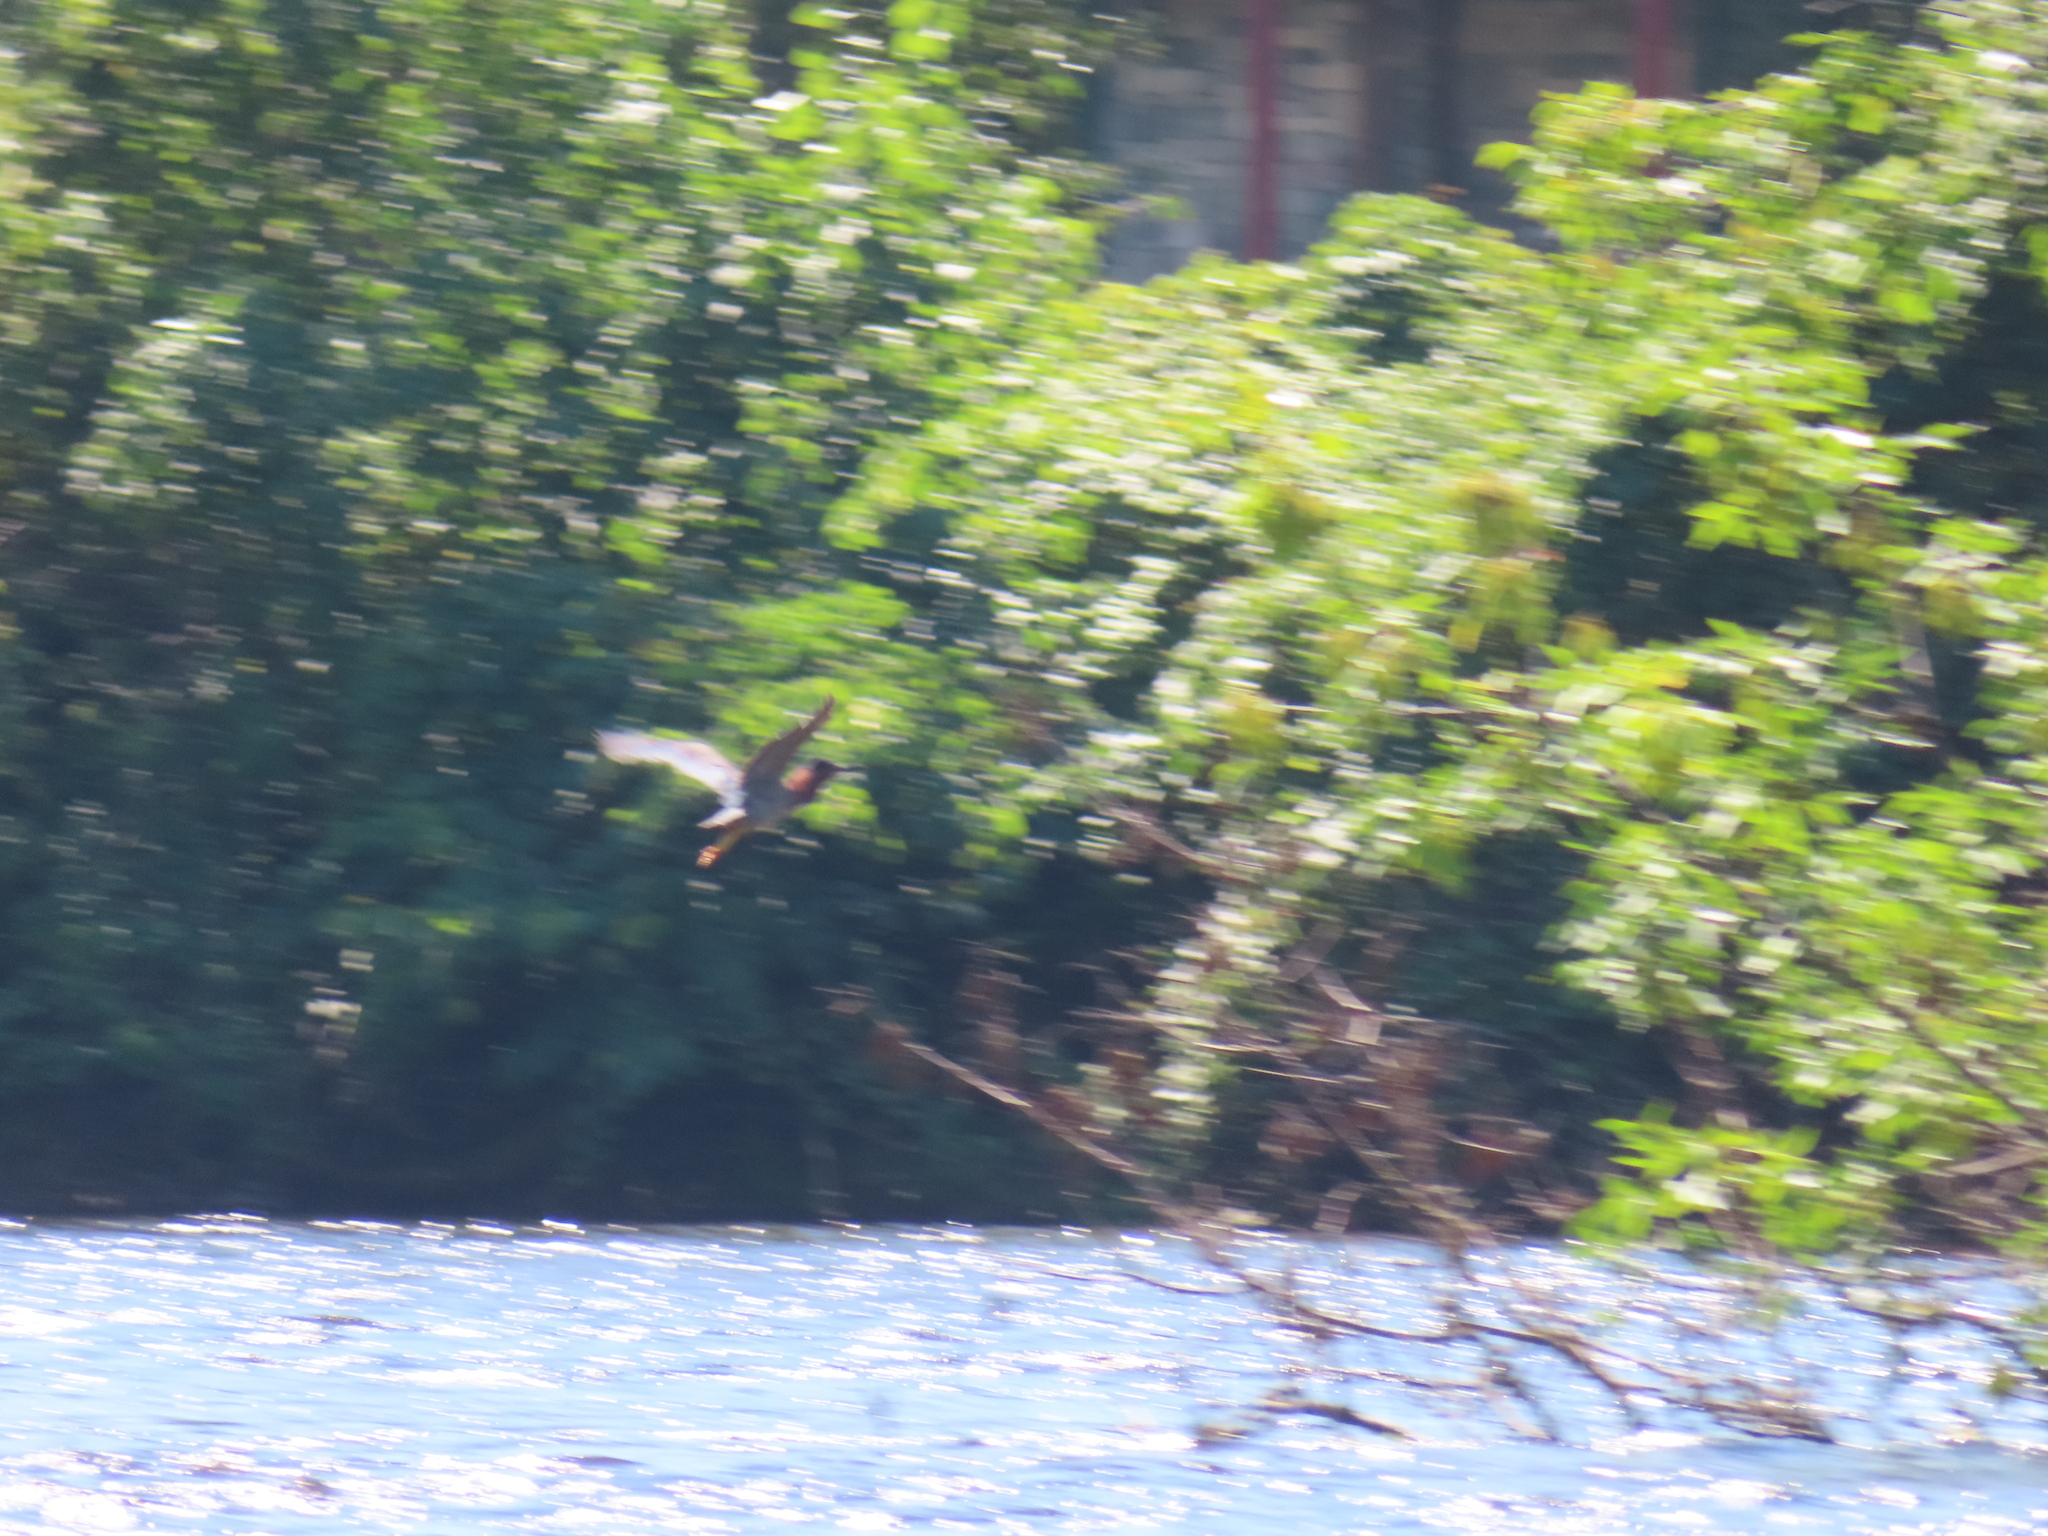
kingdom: Animalia
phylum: Chordata
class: Aves
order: Pelecaniformes
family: Ardeidae
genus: Butorides
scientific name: Butorides virescens
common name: Green heron
